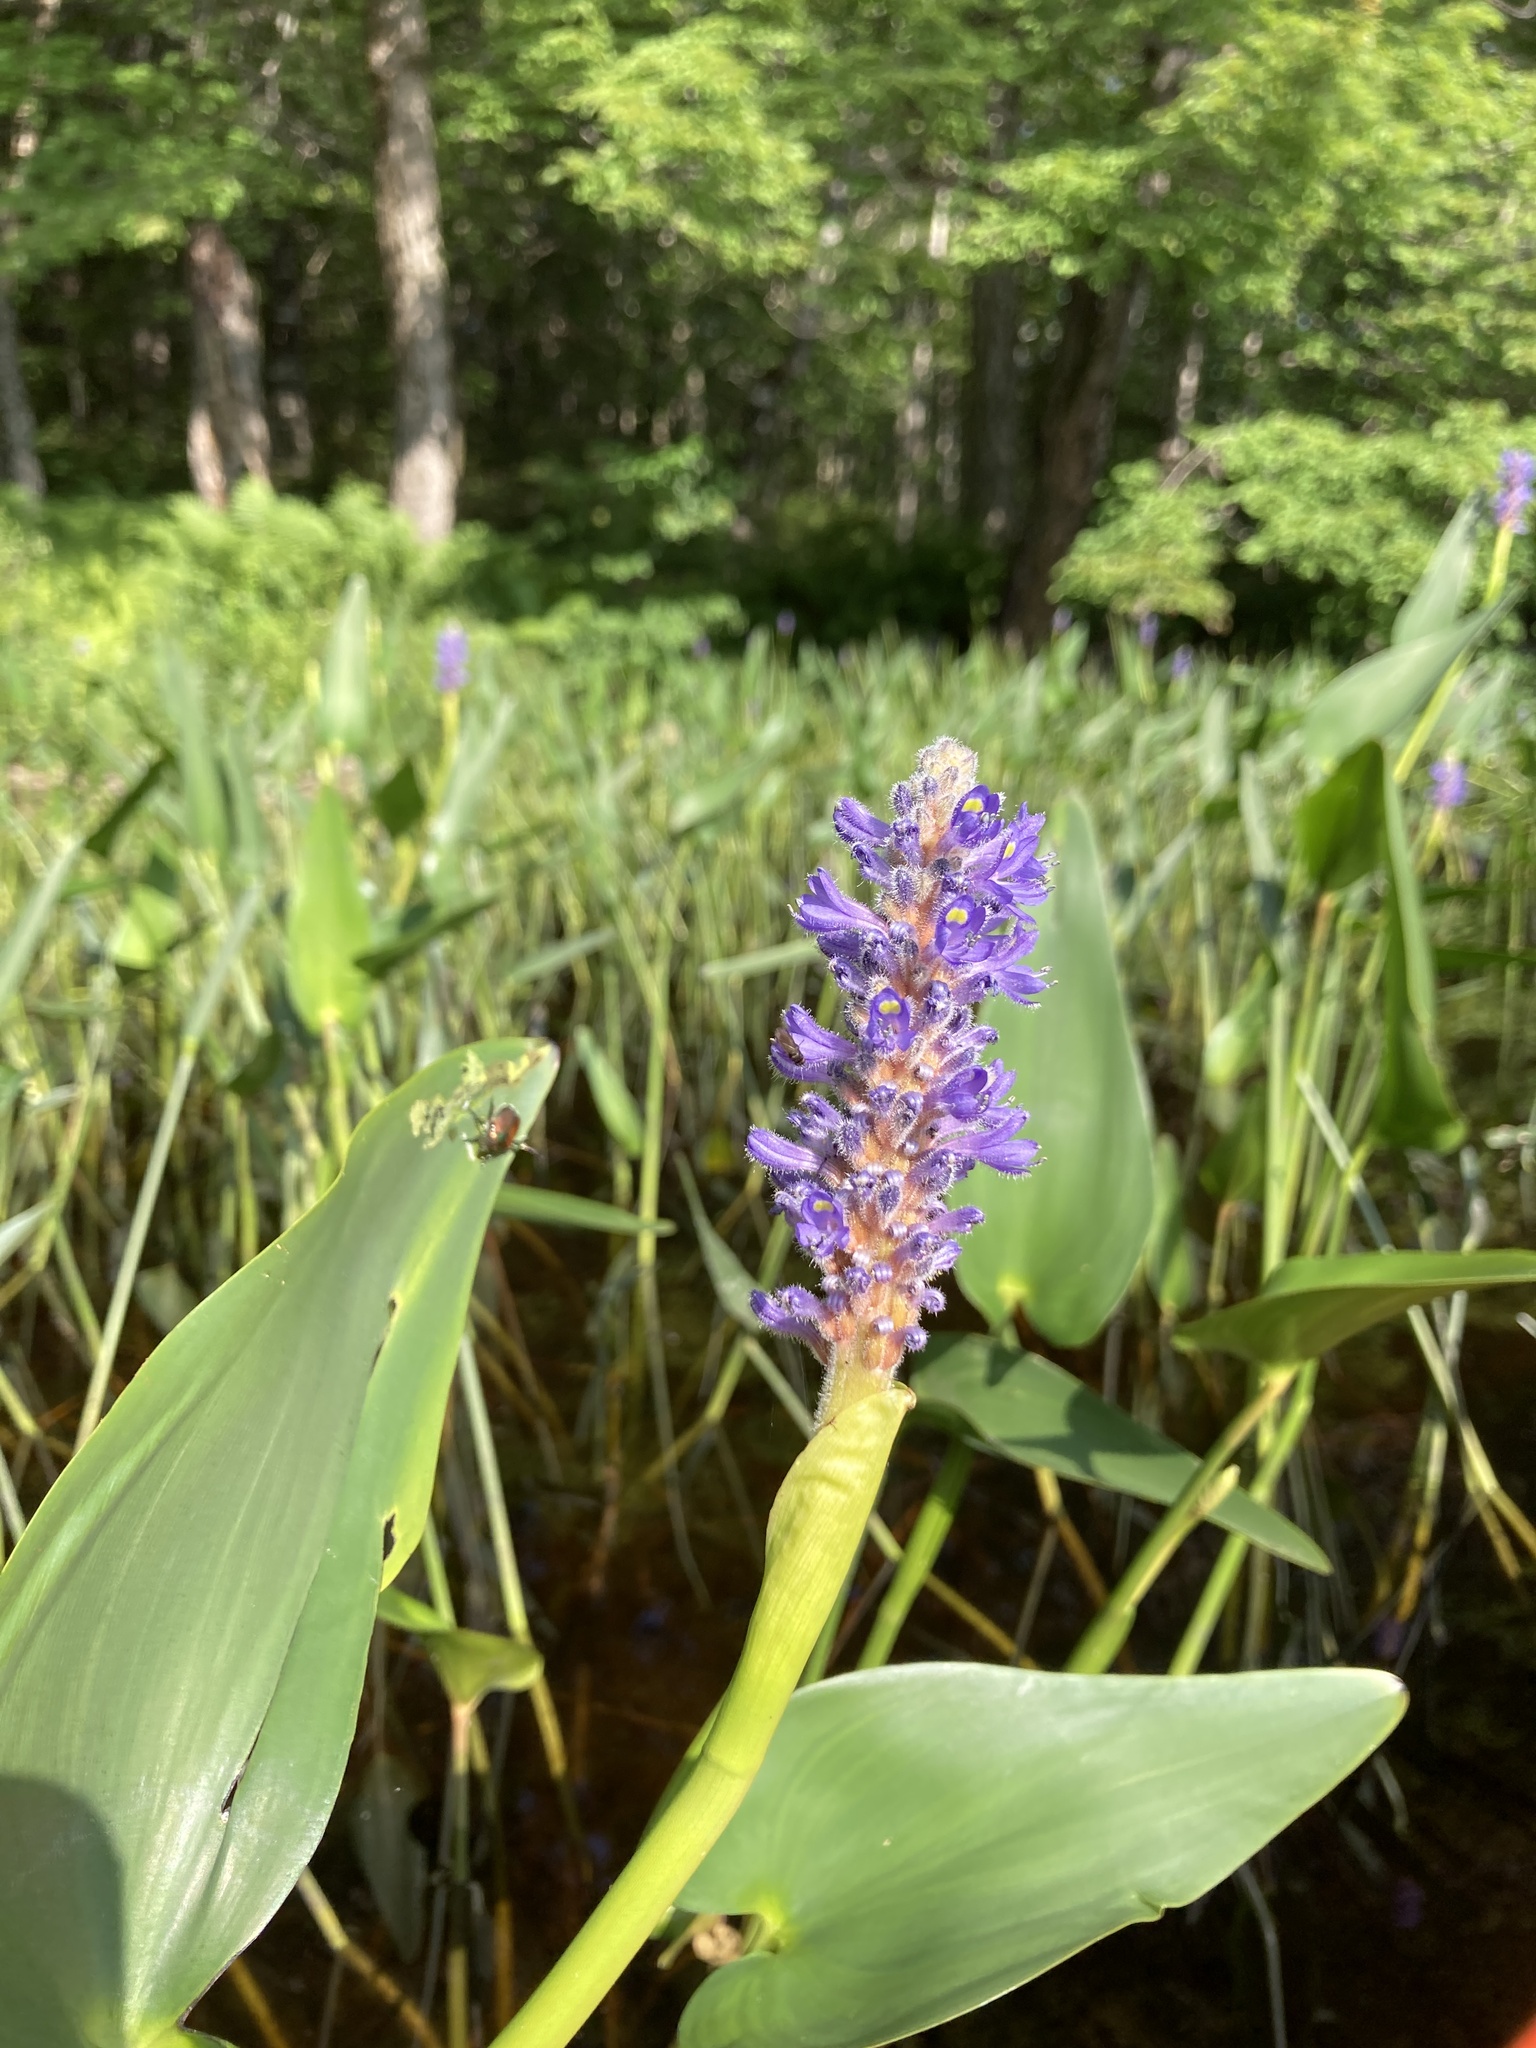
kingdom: Plantae
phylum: Tracheophyta
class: Liliopsida
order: Commelinales
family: Pontederiaceae
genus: Pontederia
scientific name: Pontederia cordata
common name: Pickerelweed
